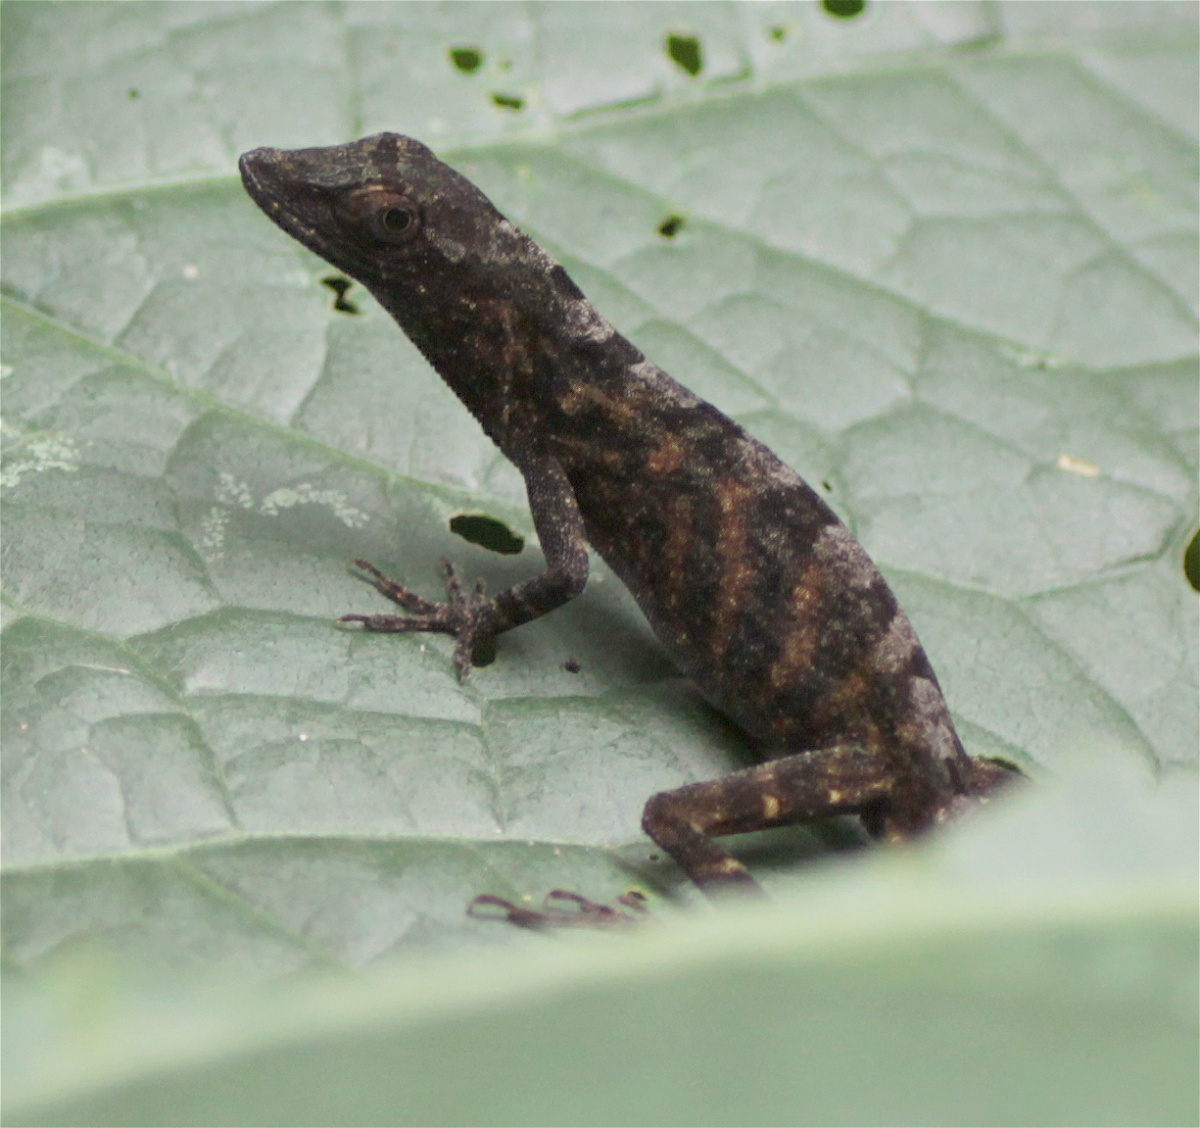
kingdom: Animalia
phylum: Chordata
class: Squamata
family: Dactyloidae
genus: Anolis
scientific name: Anolis tolimensis
